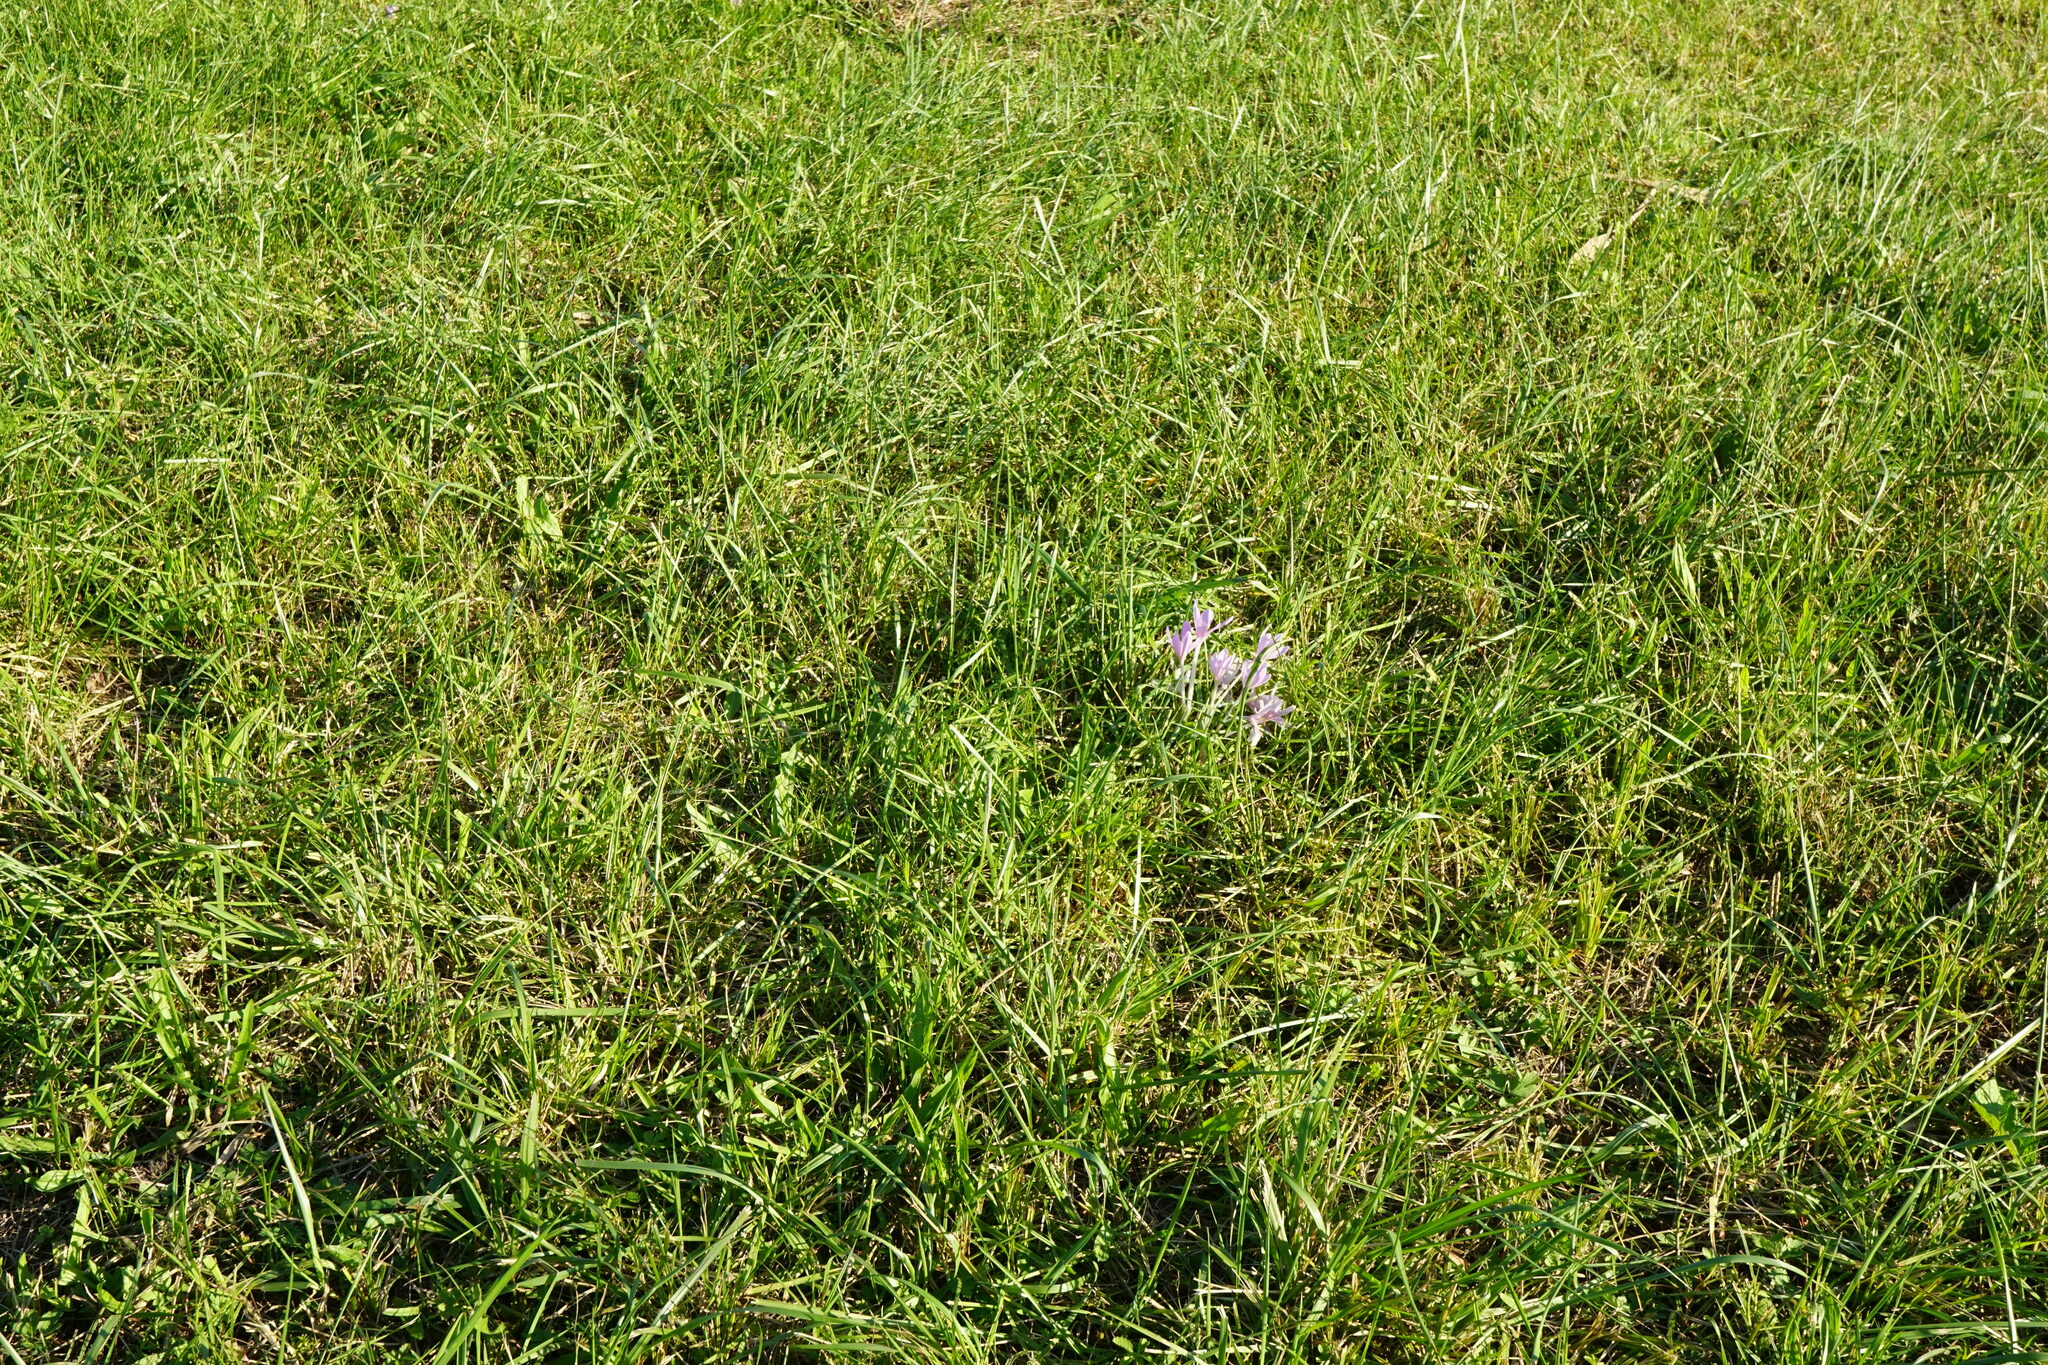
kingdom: Plantae
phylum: Tracheophyta
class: Liliopsida
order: Liliales
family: Colchicaceae
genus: Colchicum
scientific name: Colchicum autumnale
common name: Autumn crocus
